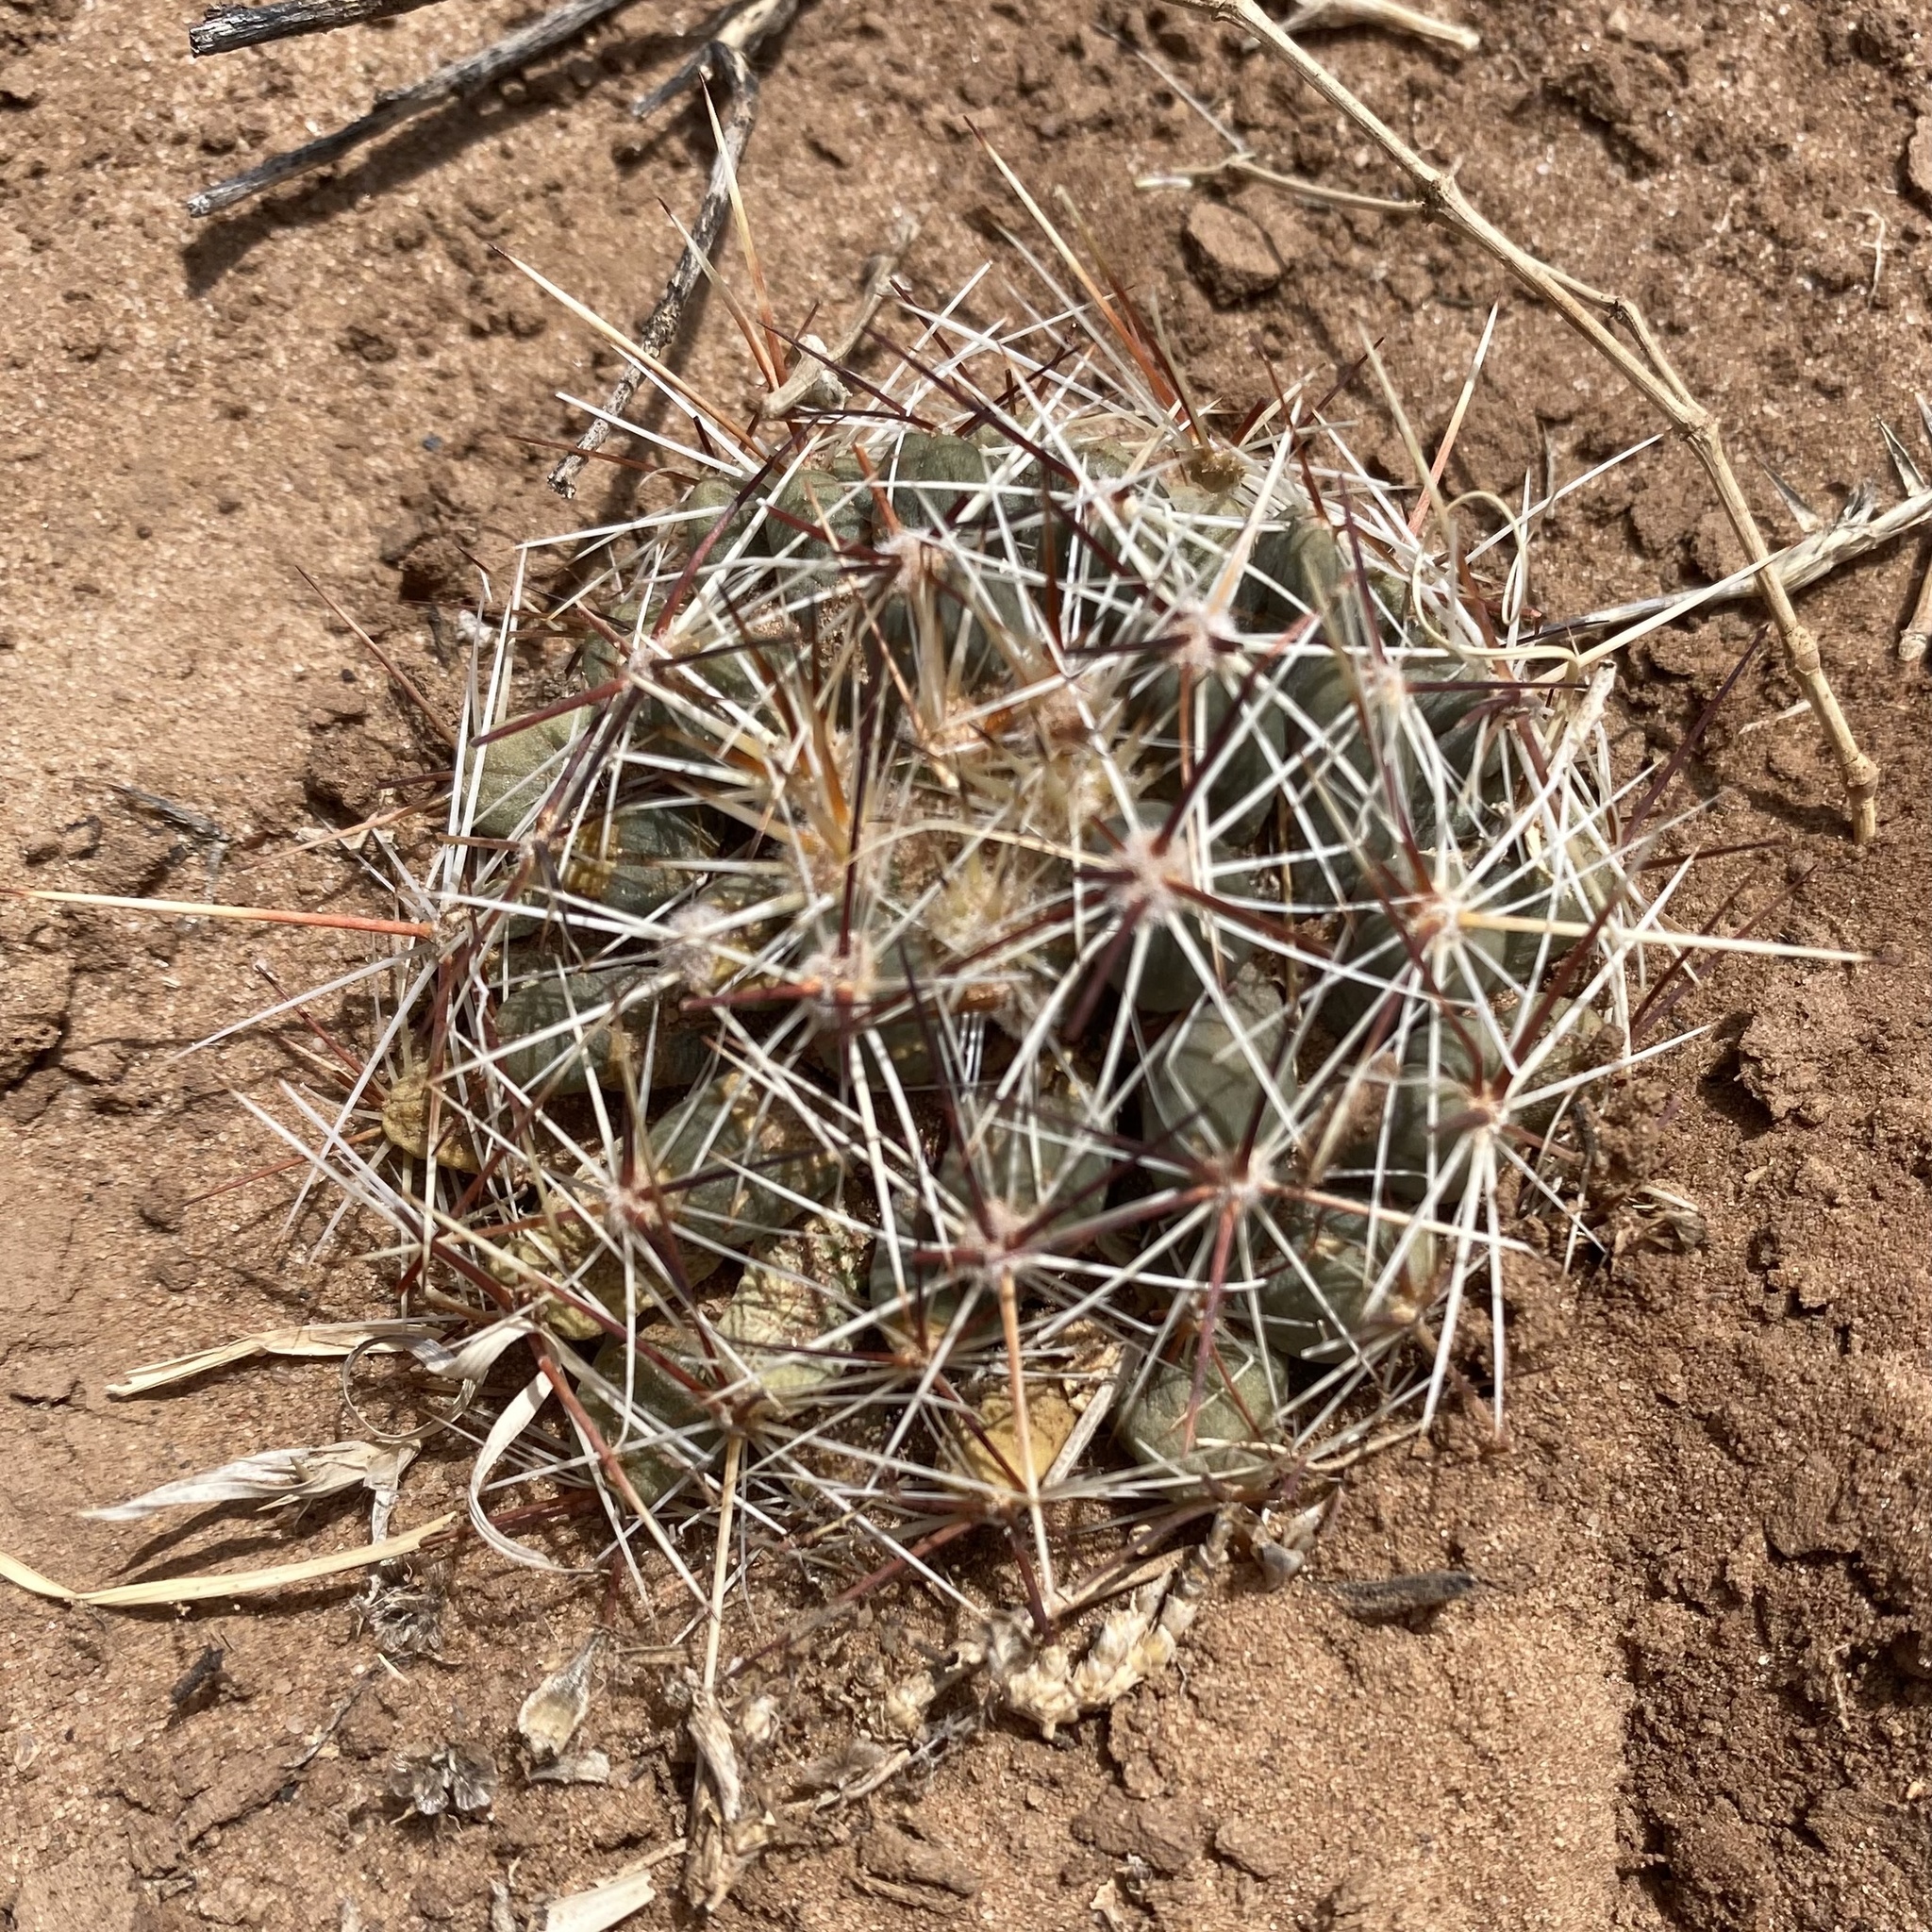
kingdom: Plantae
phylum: Tracheophyta
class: Magnoliopsida
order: Caryophyllales
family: Cactaceae
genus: Pelecyphora
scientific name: Pelecyphora vivipara
